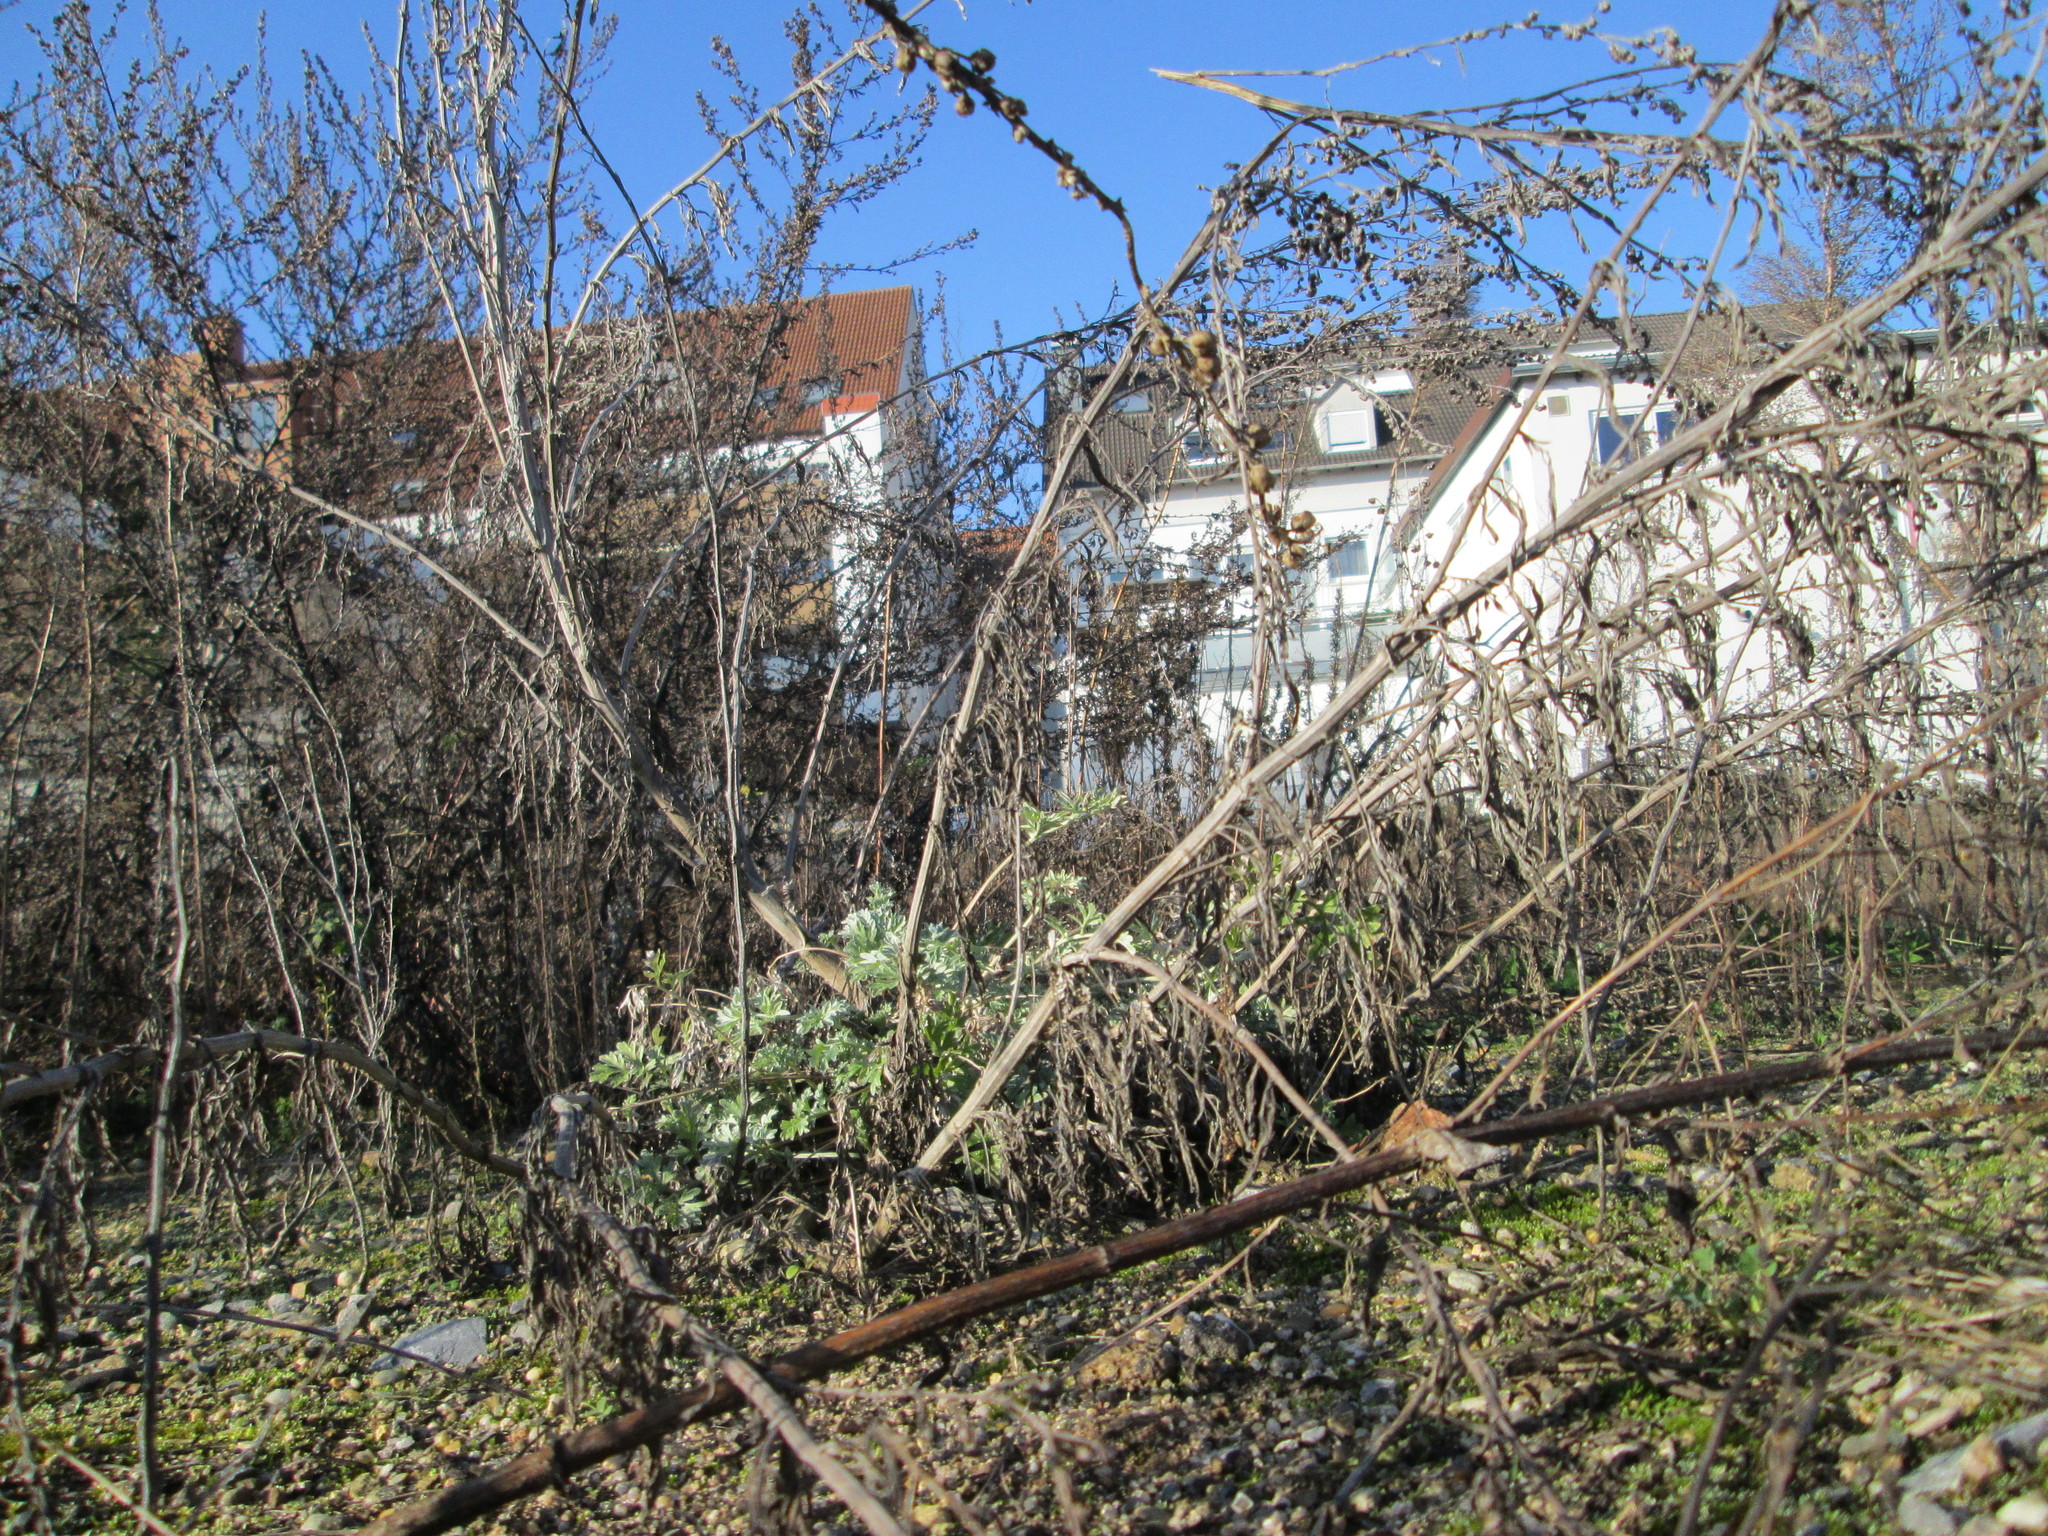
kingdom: Plantae
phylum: Tracheophyta
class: Magnoliopsida
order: Asterales
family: Asteraceae
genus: Artemisia
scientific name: Artemisia absinthium
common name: Wormwood
